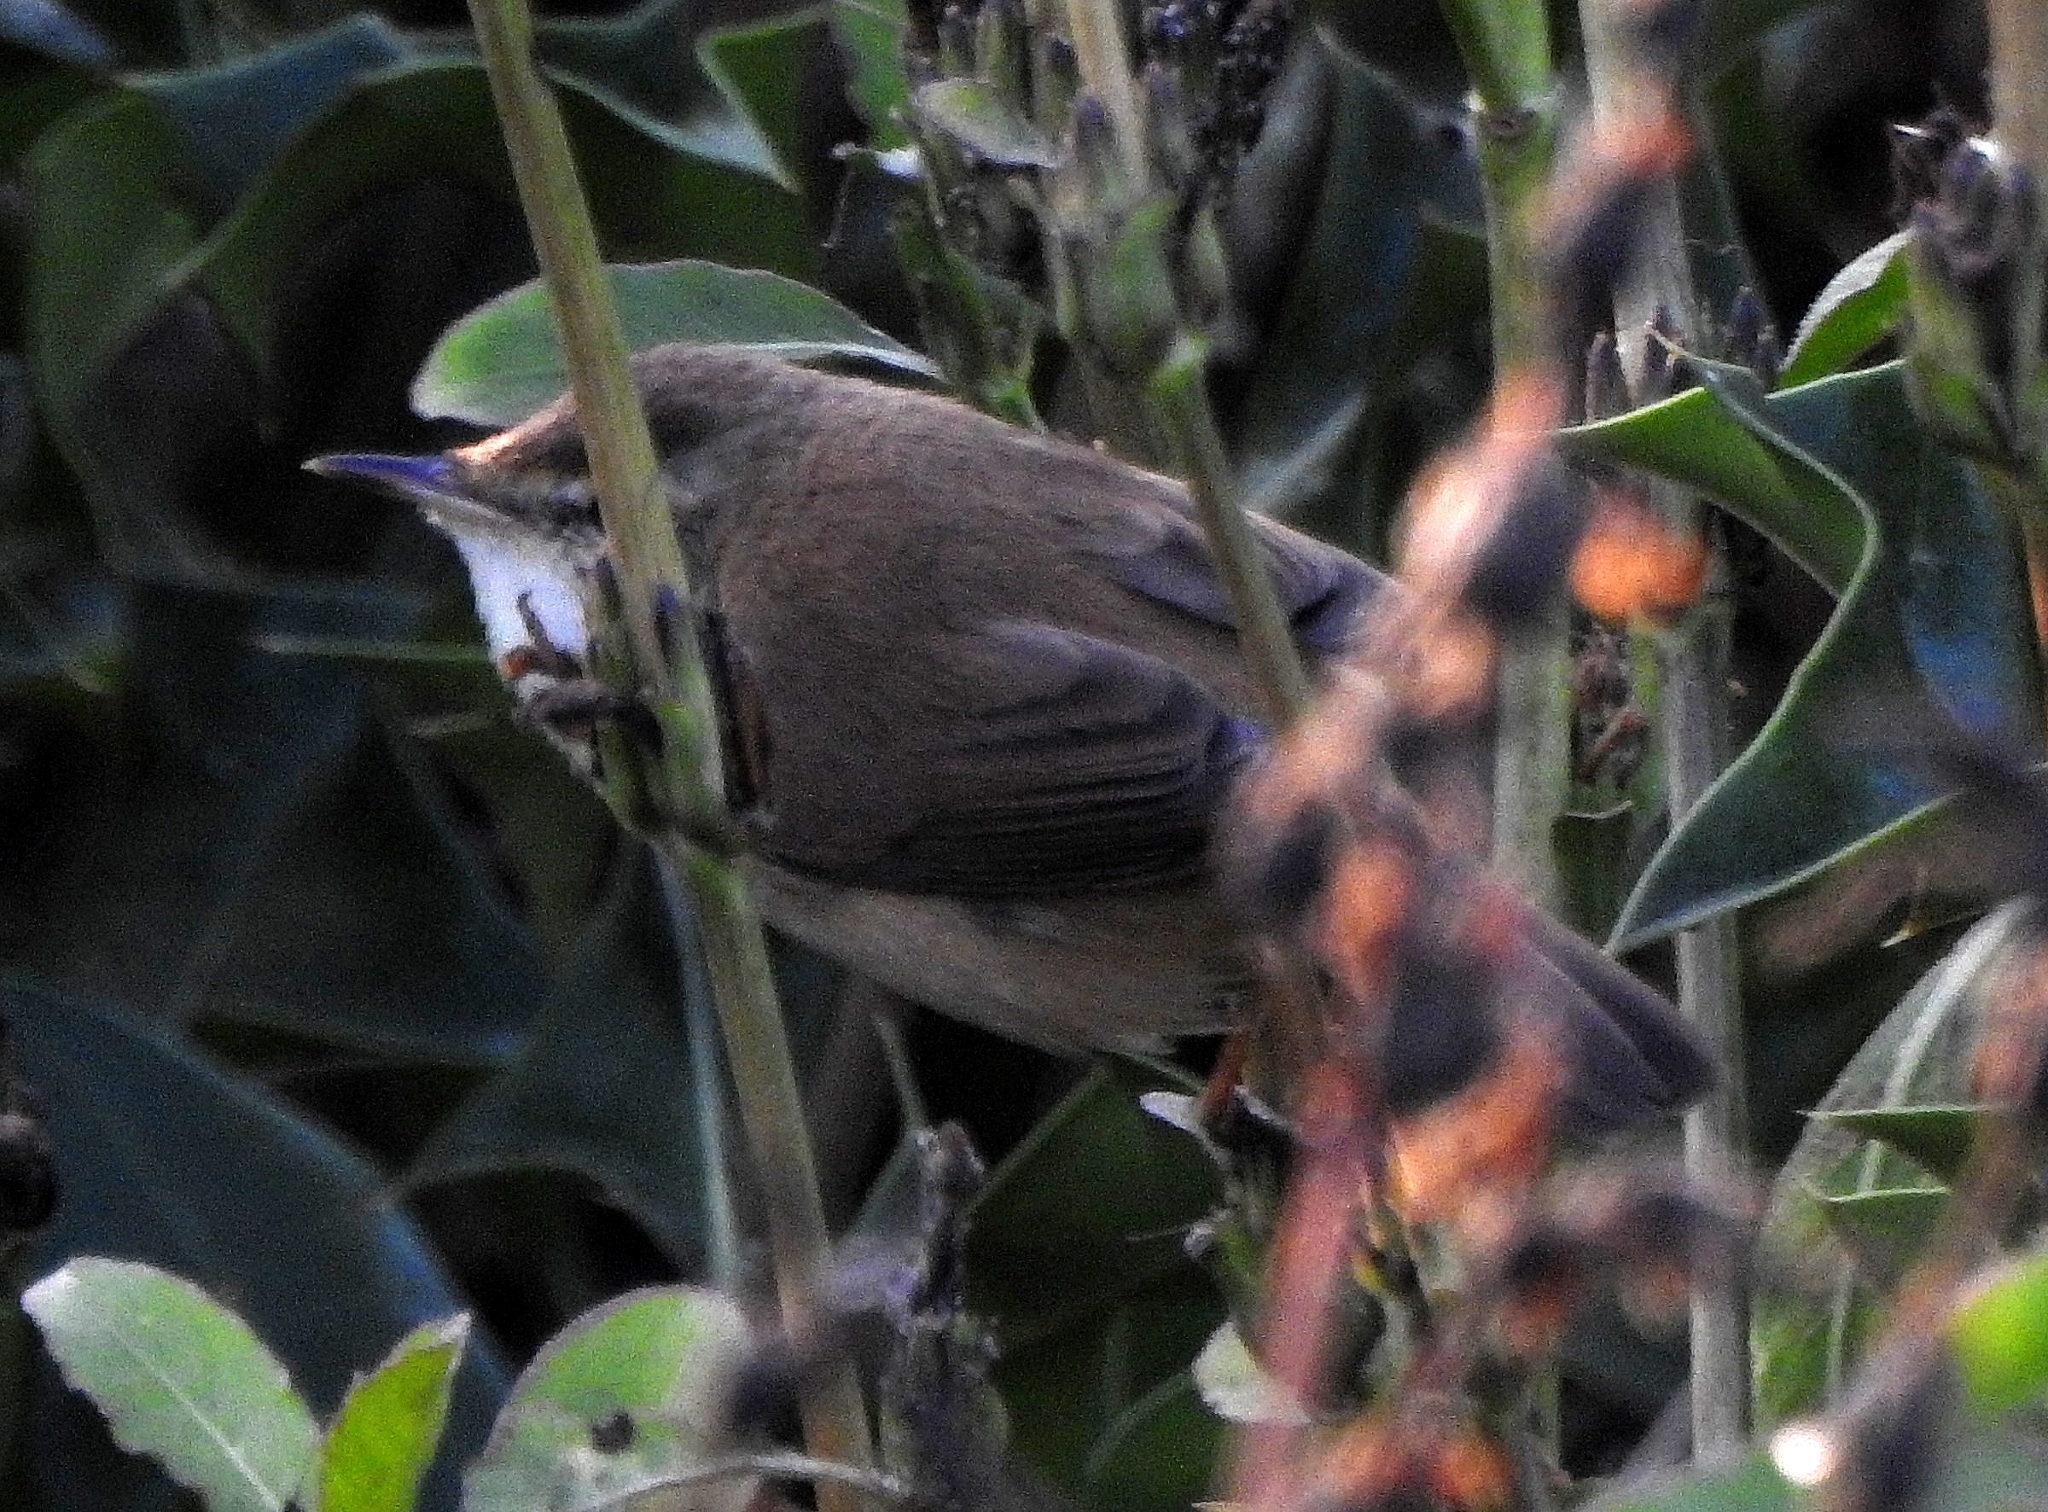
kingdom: Animalia
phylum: Chordata
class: Aves
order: Passeriformes
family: Acrocephalidae
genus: Acrocephalus
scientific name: Acrocephalus agricola
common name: Paddyfield warbler
